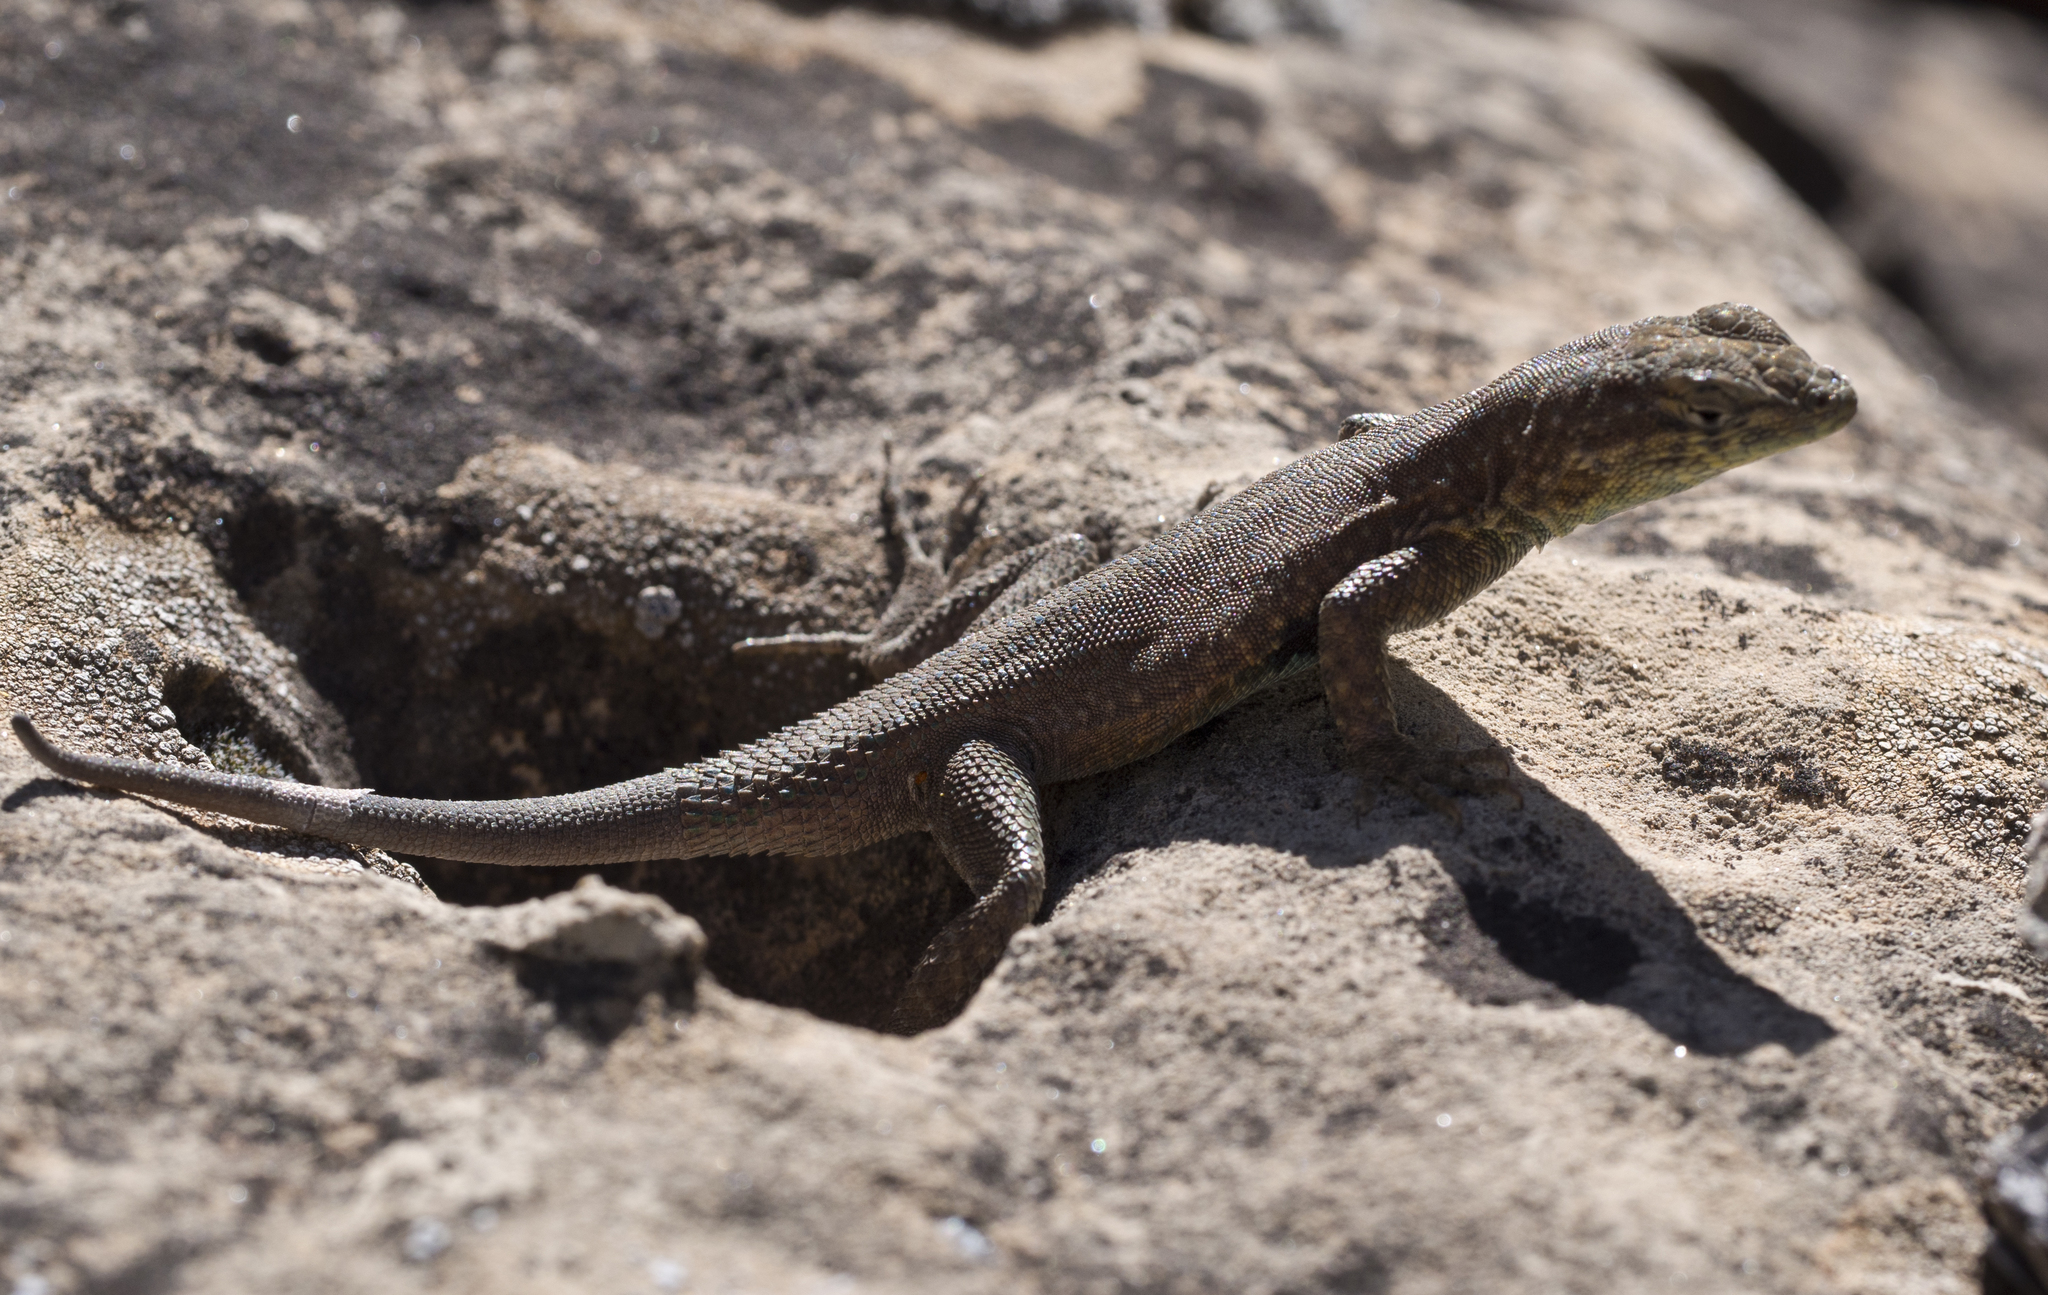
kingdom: Animalia
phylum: Chordata
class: Squamata
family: Phrynosomatidae
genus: Uta
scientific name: Uta stansburiana
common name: Side-blotched lizard
